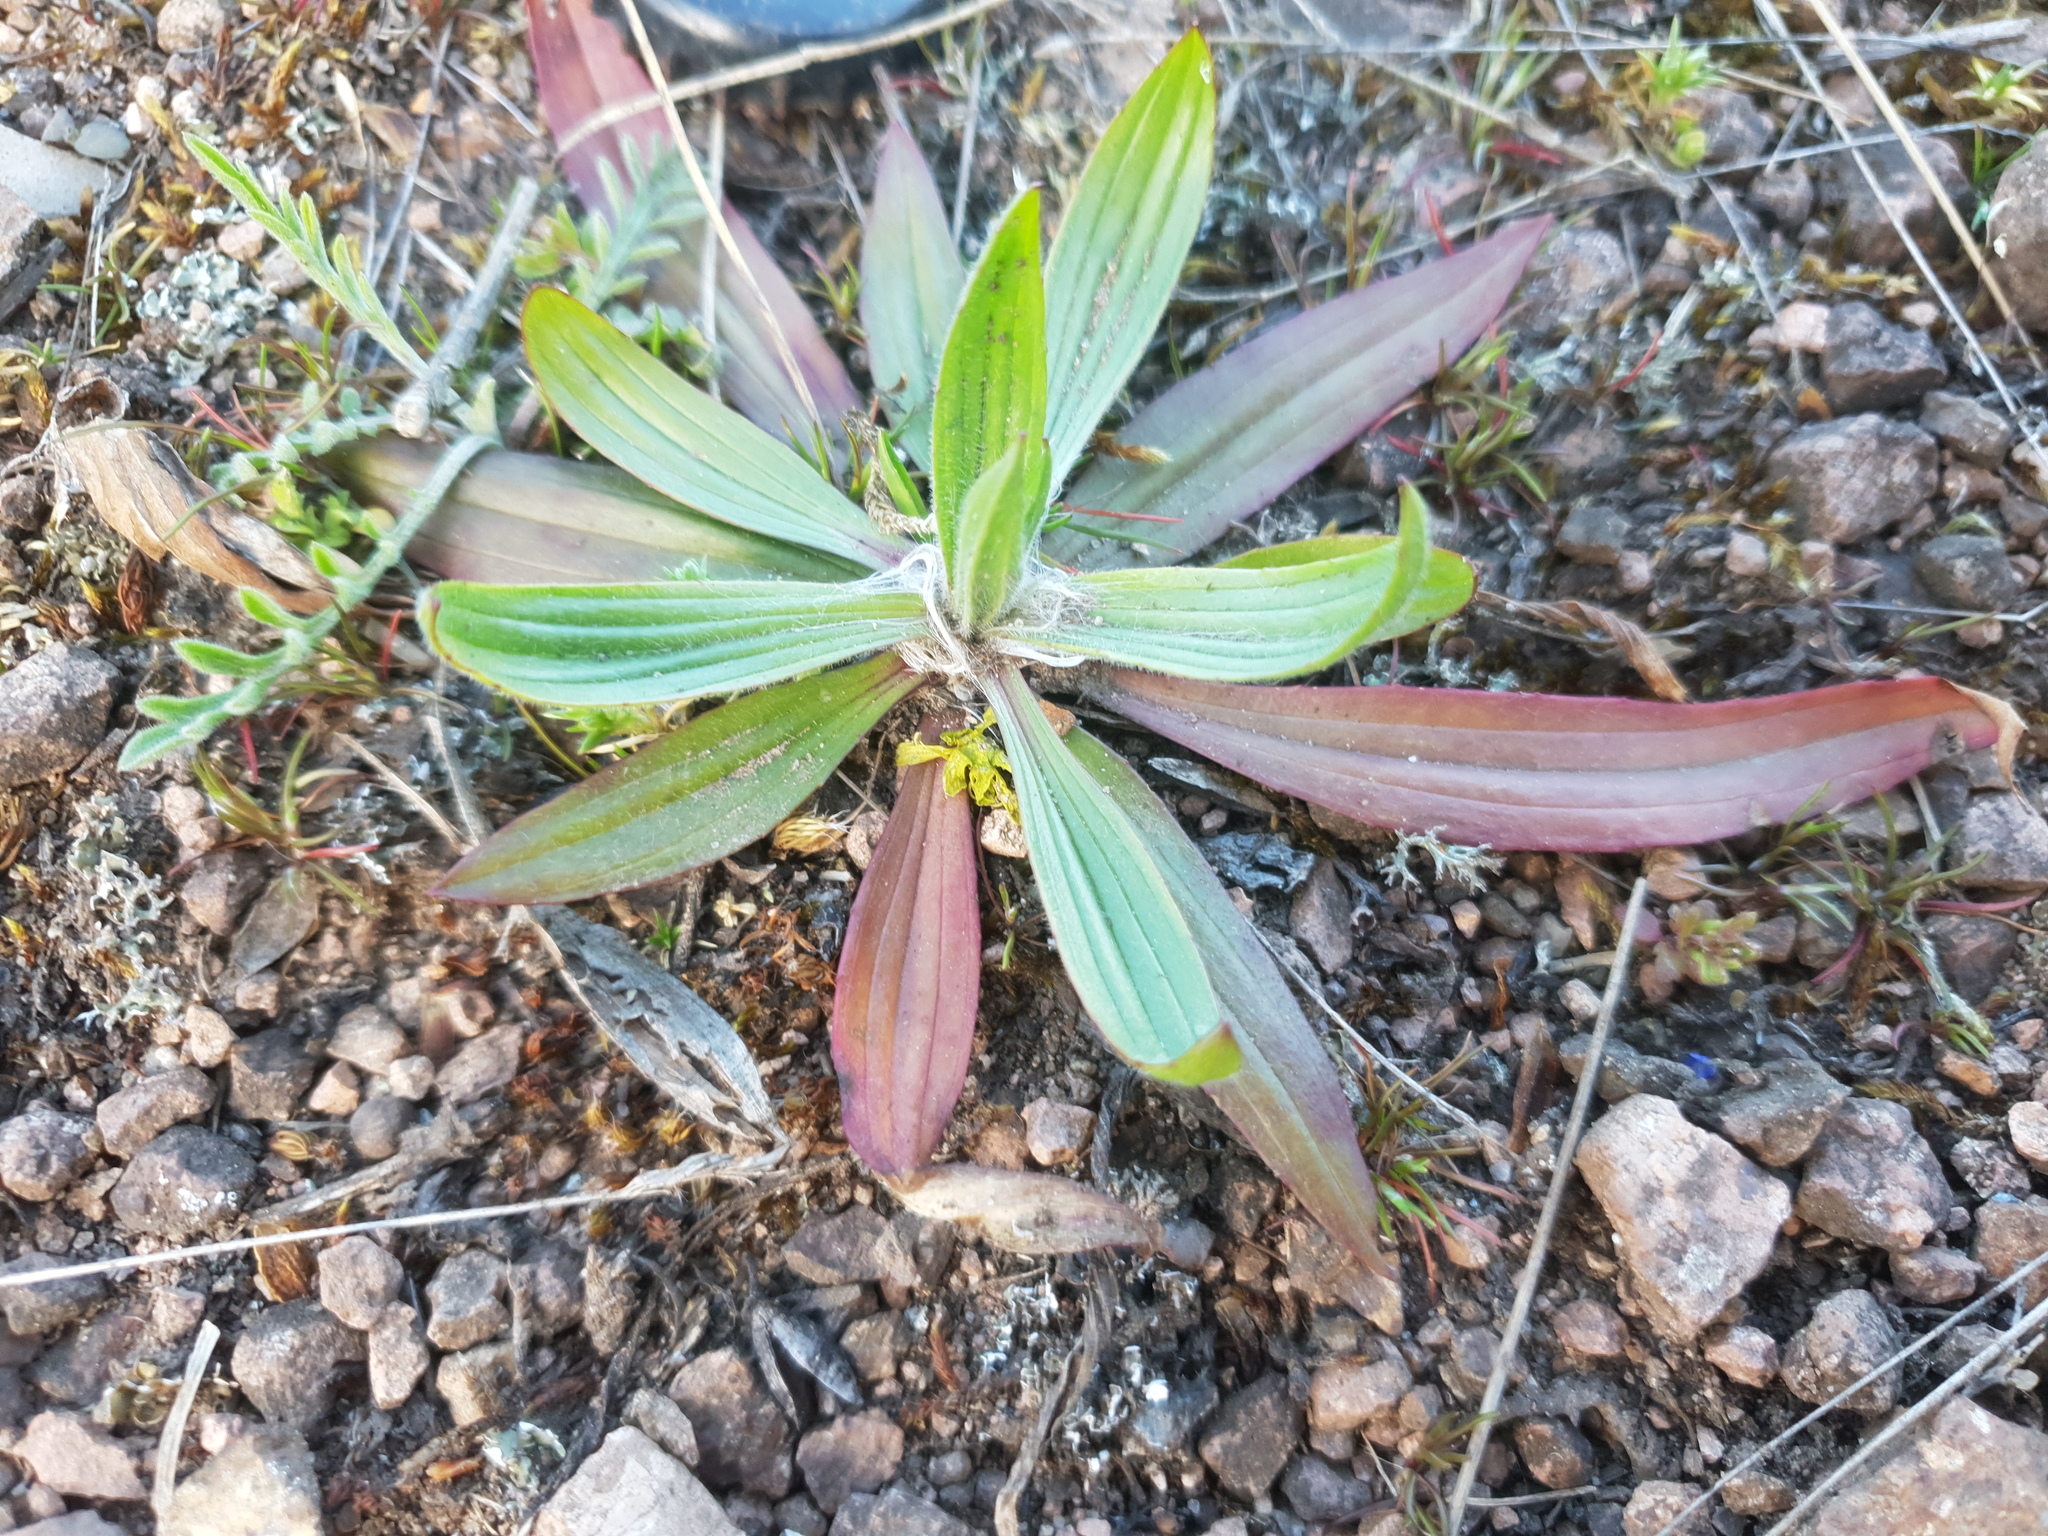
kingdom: Plantae
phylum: Tracheophyta
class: Magnoliopsida
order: Lamiales
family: Plantaginaceae
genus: Plantago
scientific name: Plantago lanceolata
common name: Ribwort plantain
